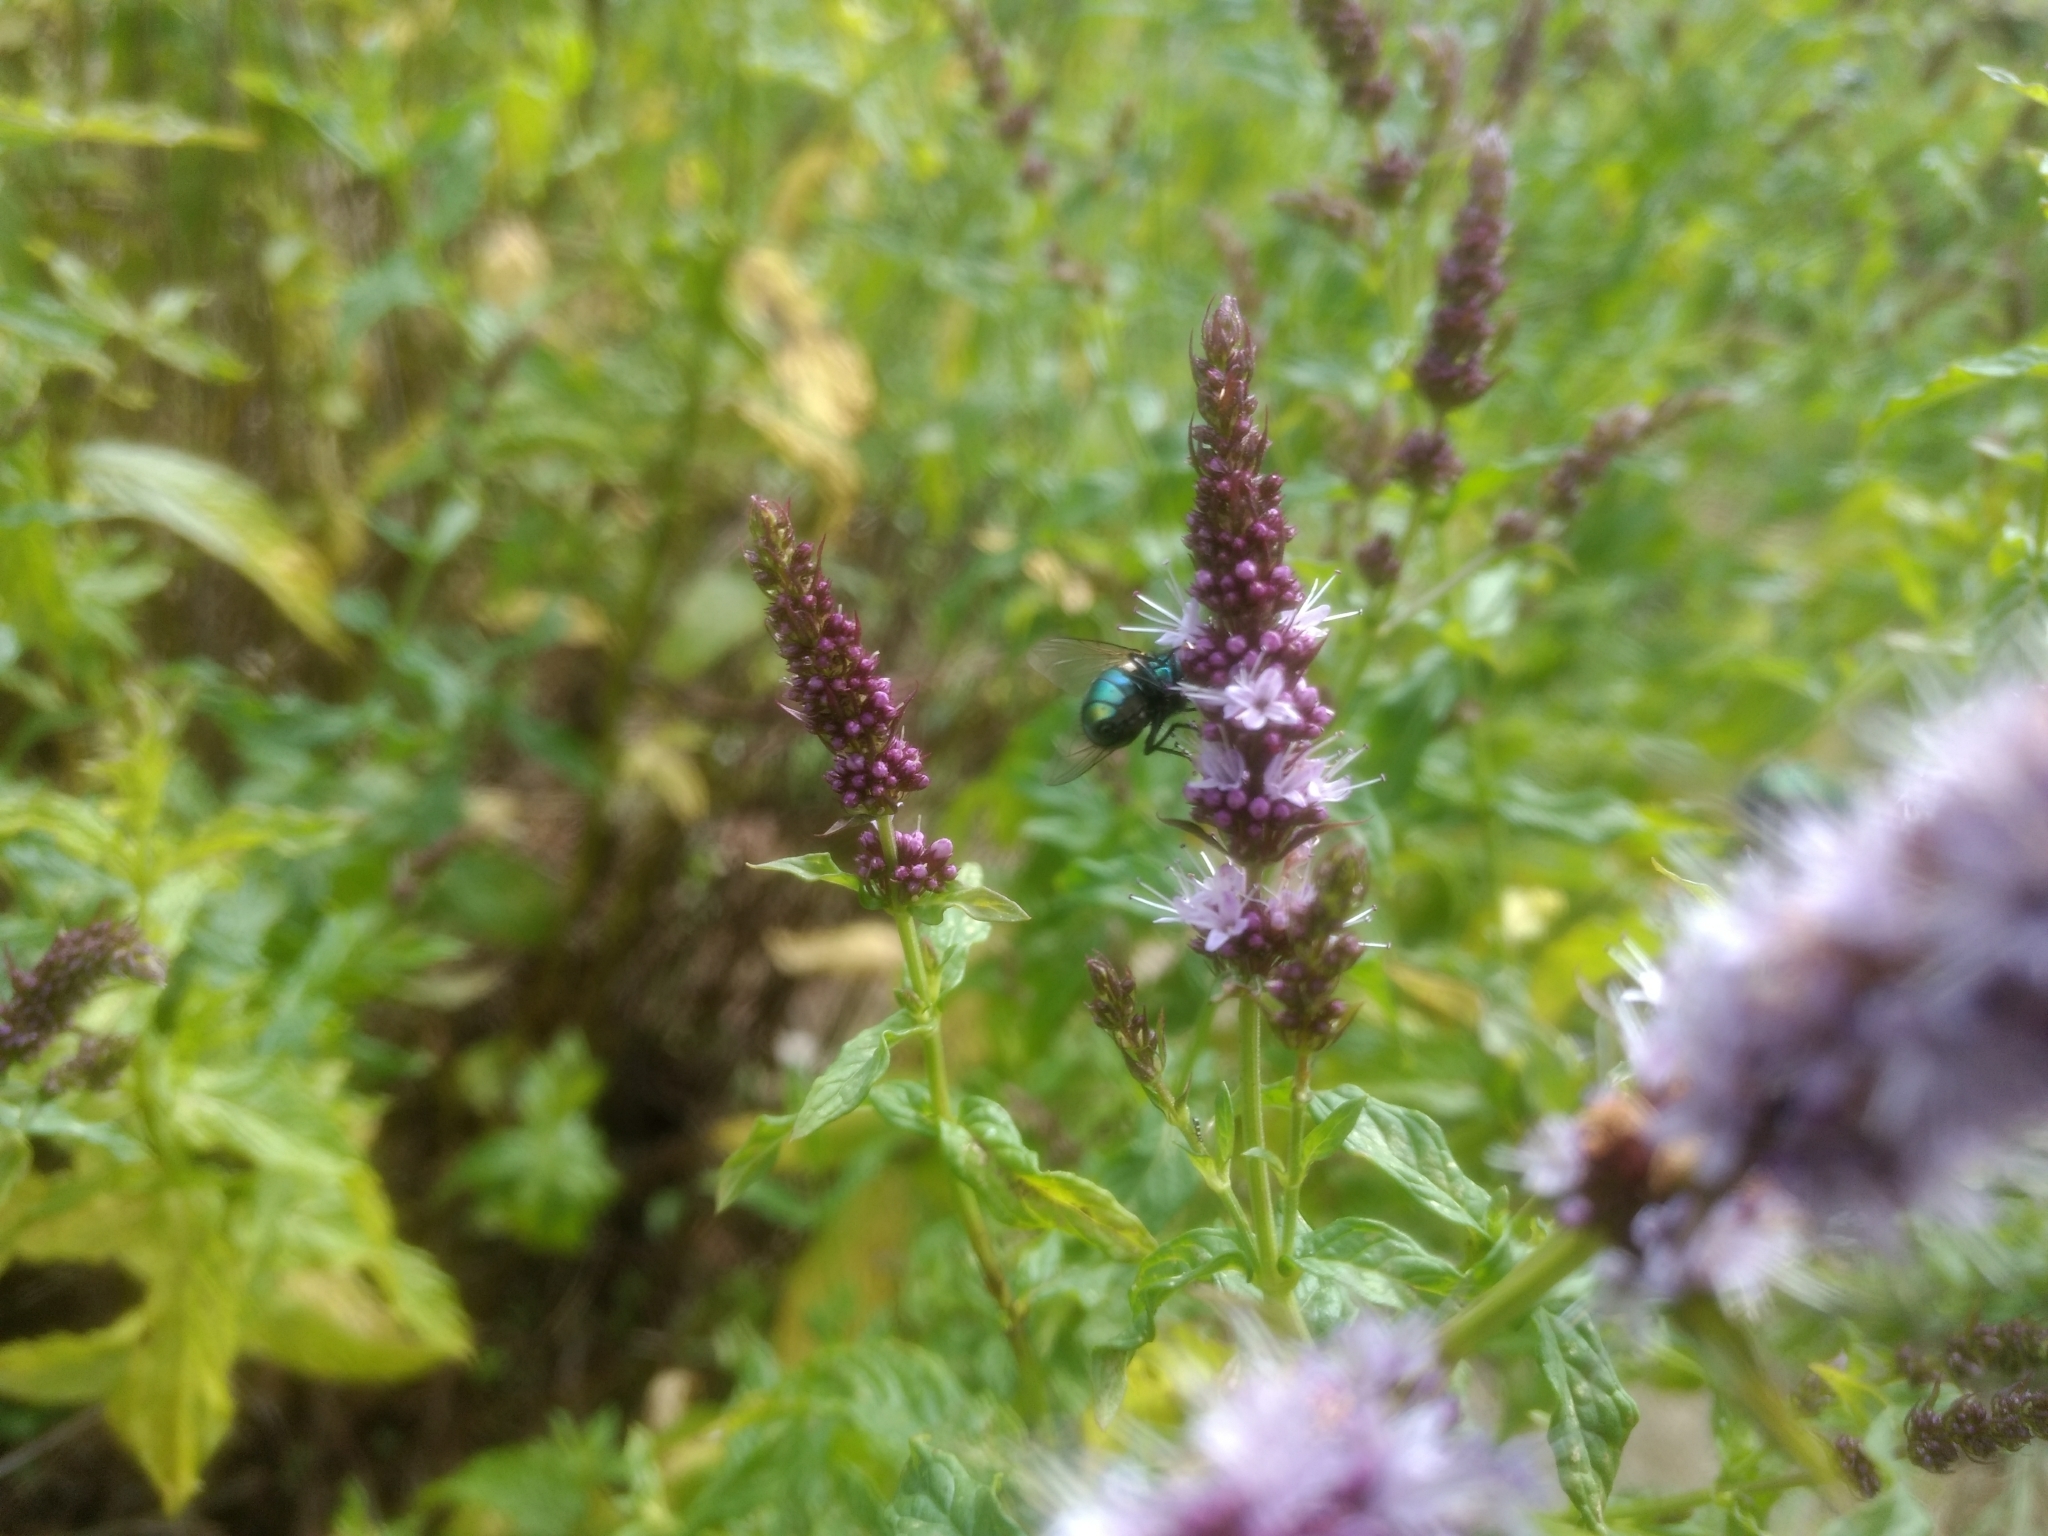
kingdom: Animalia
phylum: Arthropoda
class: Insecta
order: Diptera
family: Calliphoridae
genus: Lucilia
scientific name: Lucilia
